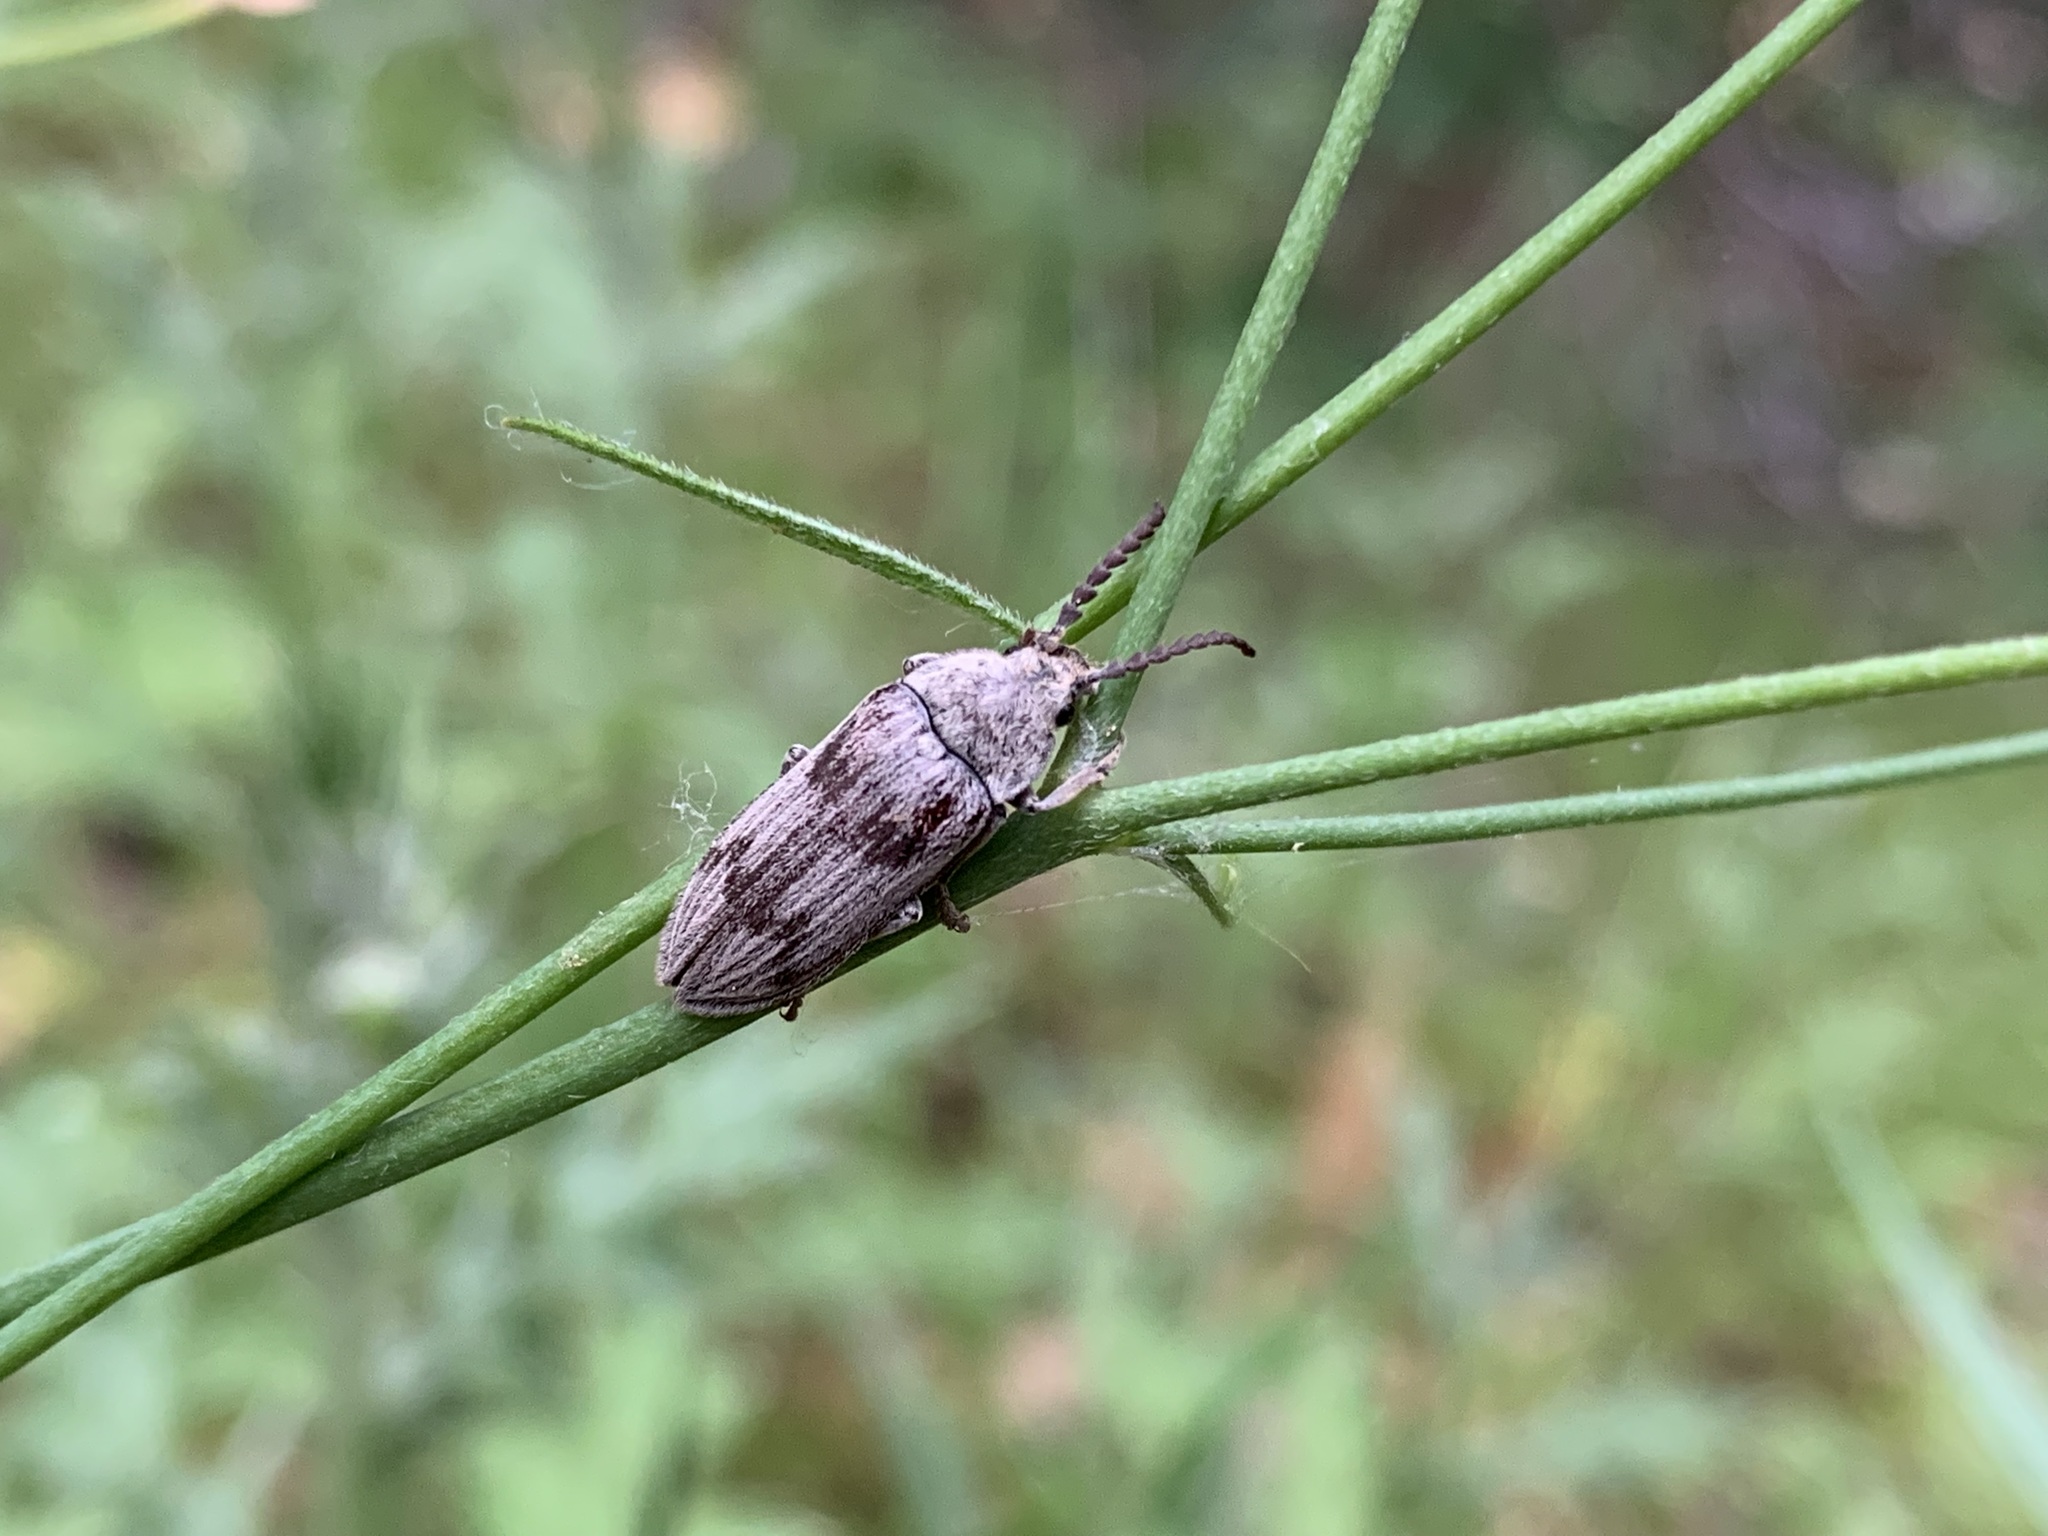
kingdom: Animalia
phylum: Arthropoda
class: Insecta
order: Coleoptera
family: Dascillidae
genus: Dascillus
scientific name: Dascillus davidsoni
